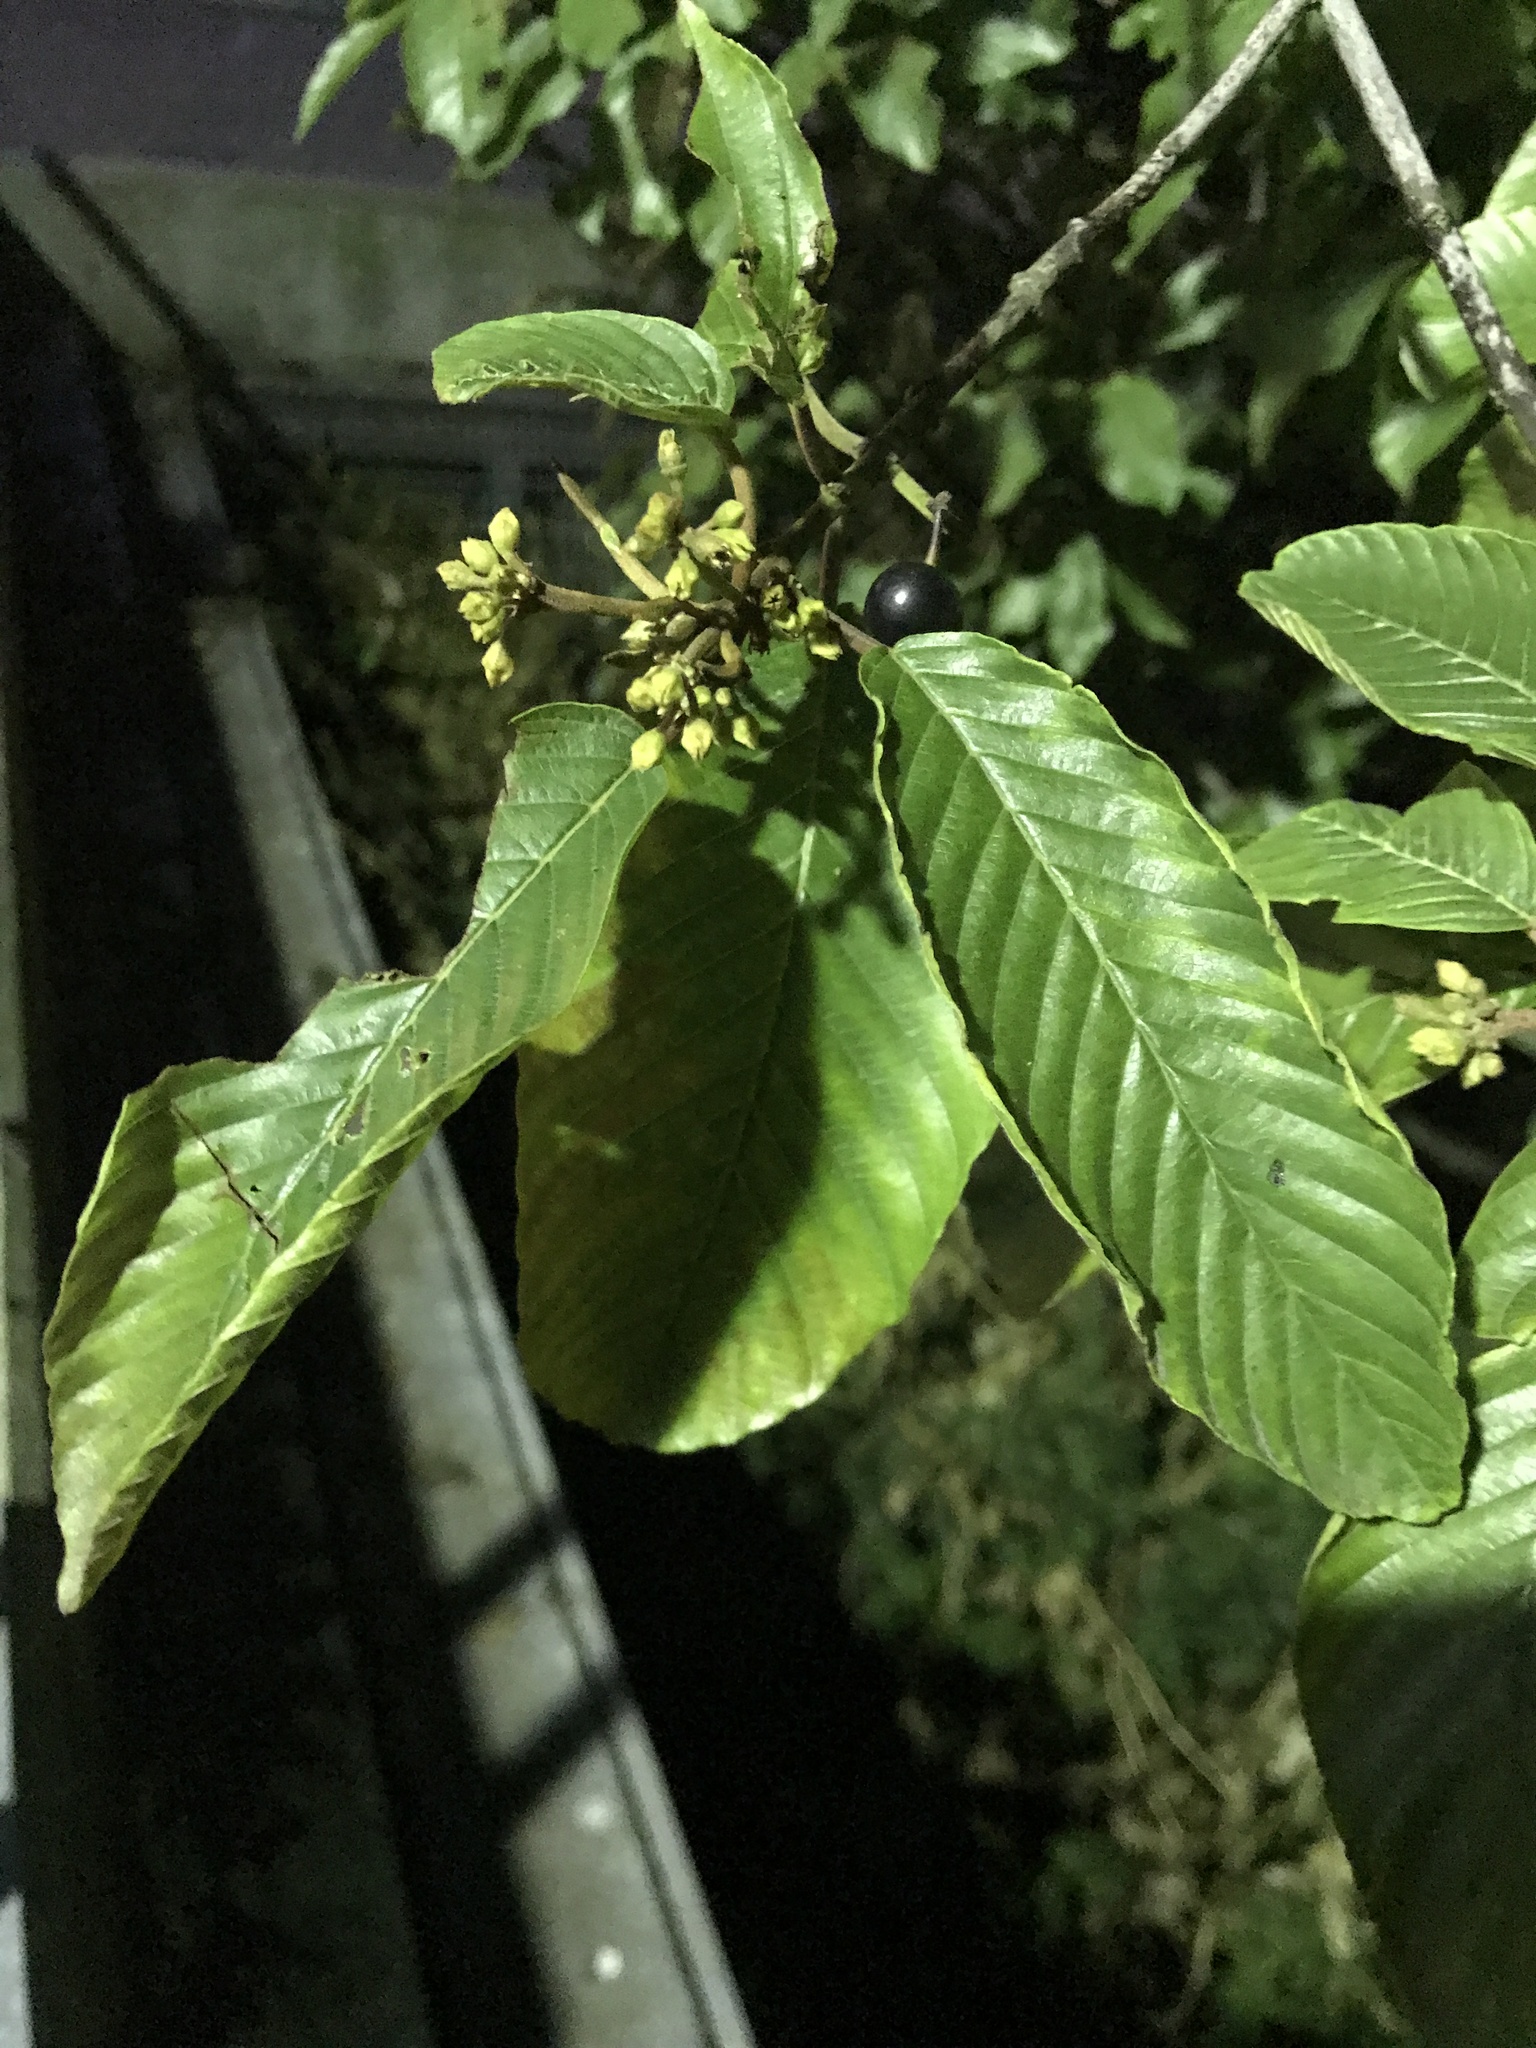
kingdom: Plantae
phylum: Tracheophyta
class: Magnoliopsida
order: Rosales
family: Rhamnaceae
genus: Frangula
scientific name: Frangula purshiana
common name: Cascara buckthorn
